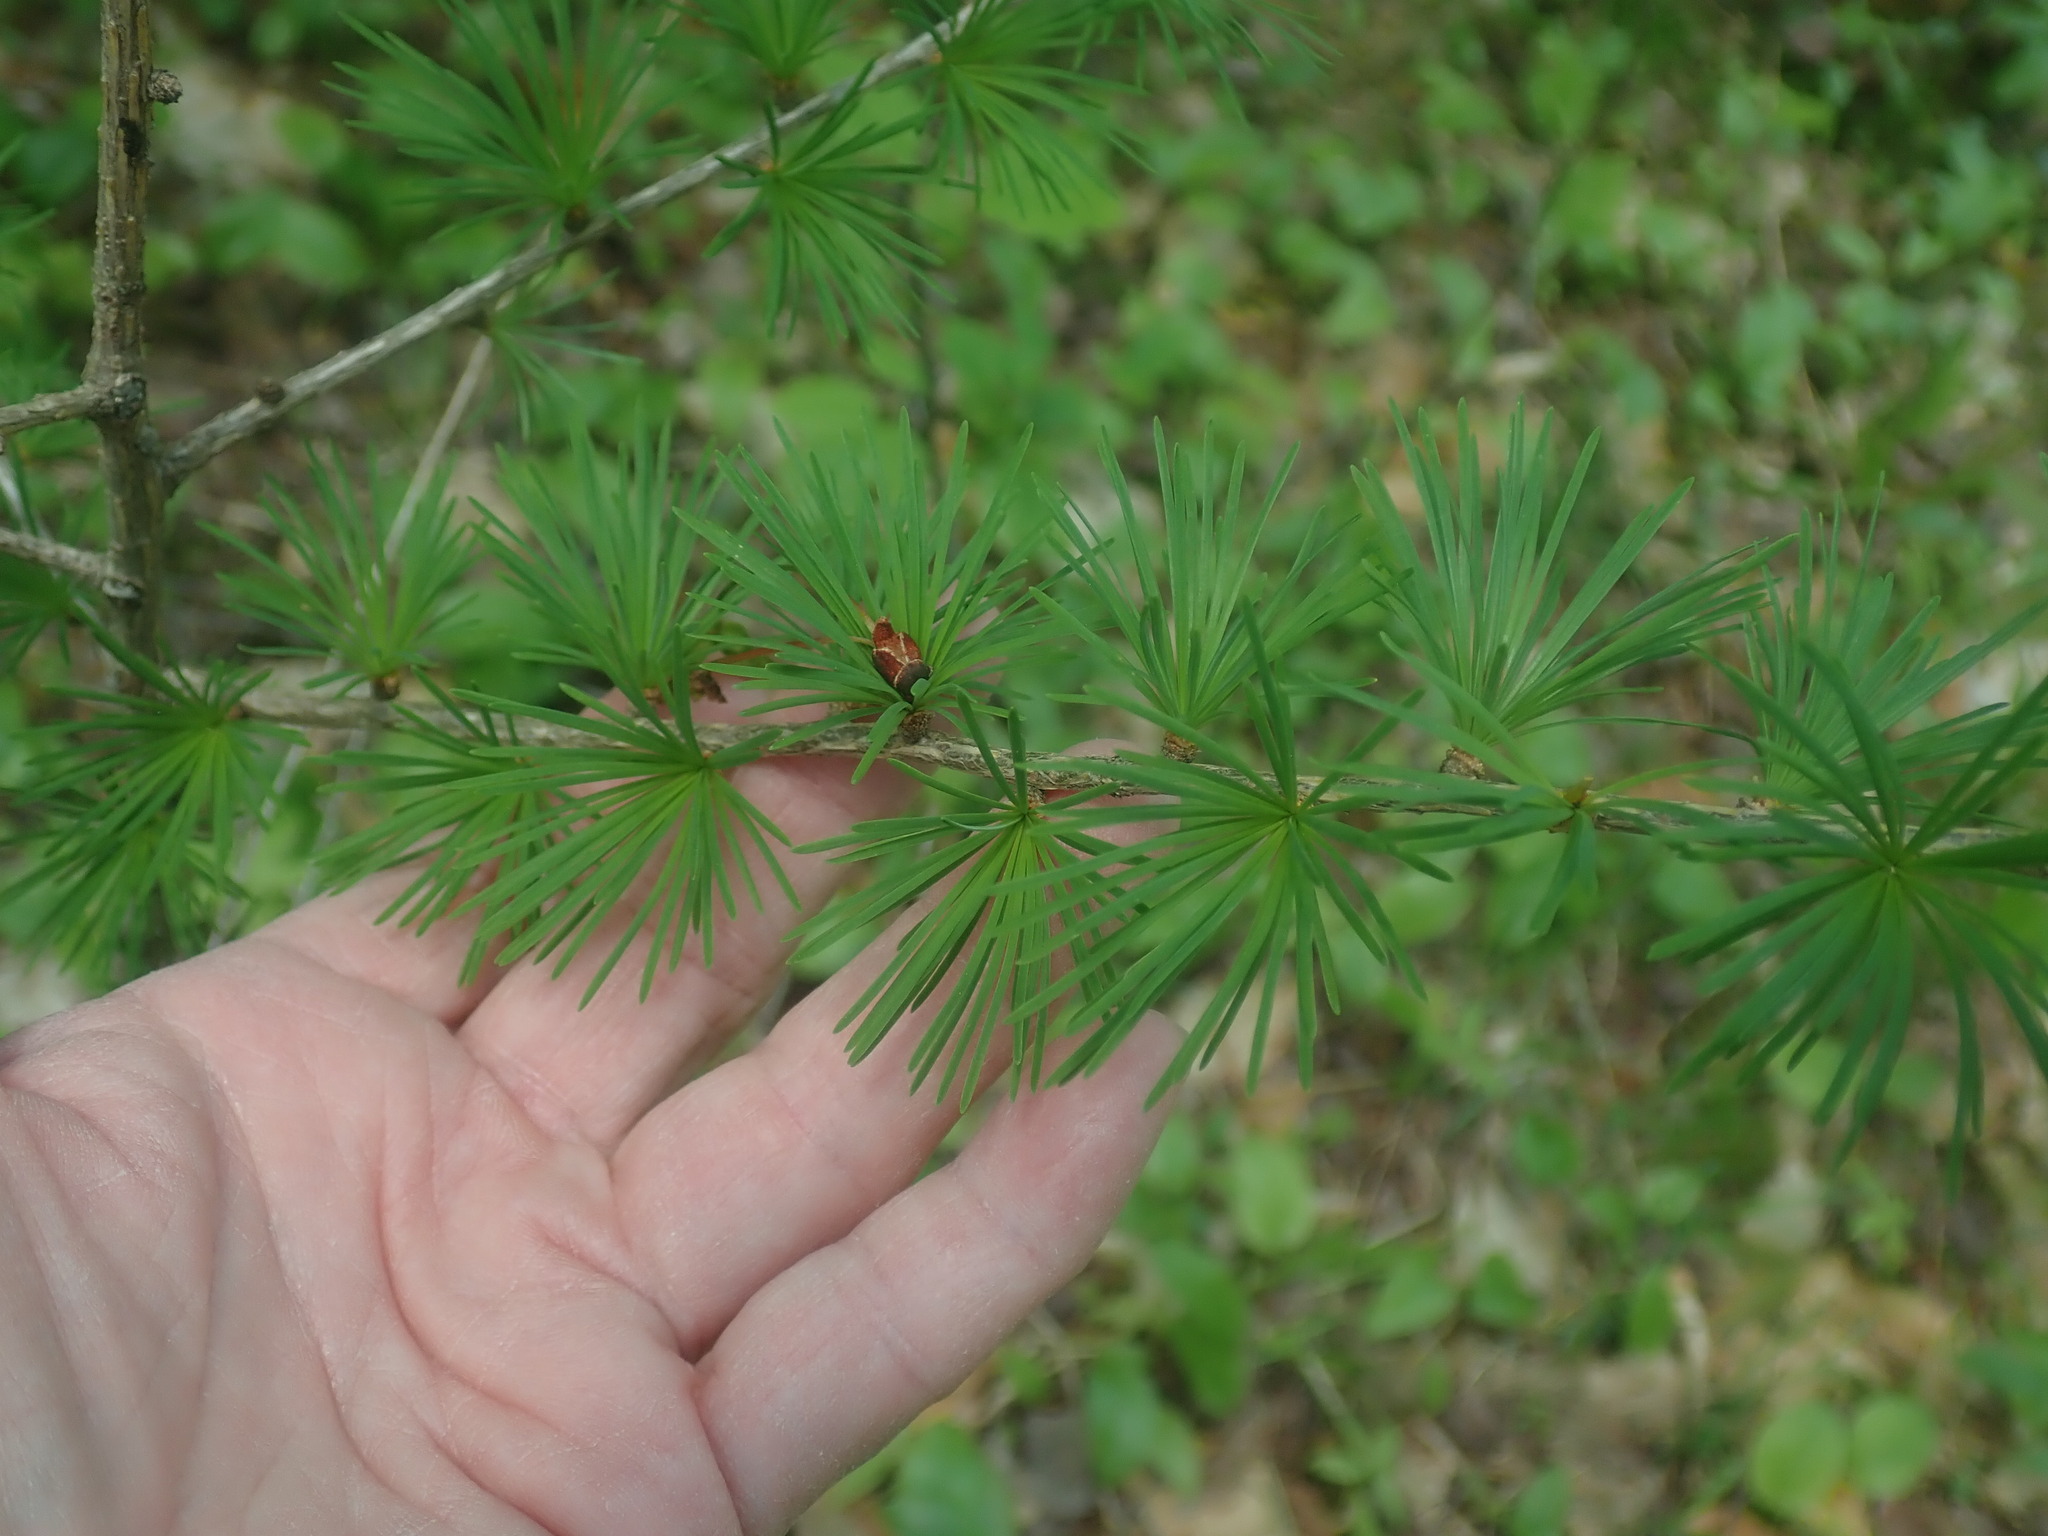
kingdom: Plantae
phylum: Tracheophyta
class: Pinopsida
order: Pinales
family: Pinaceae
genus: Larix
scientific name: Larix
